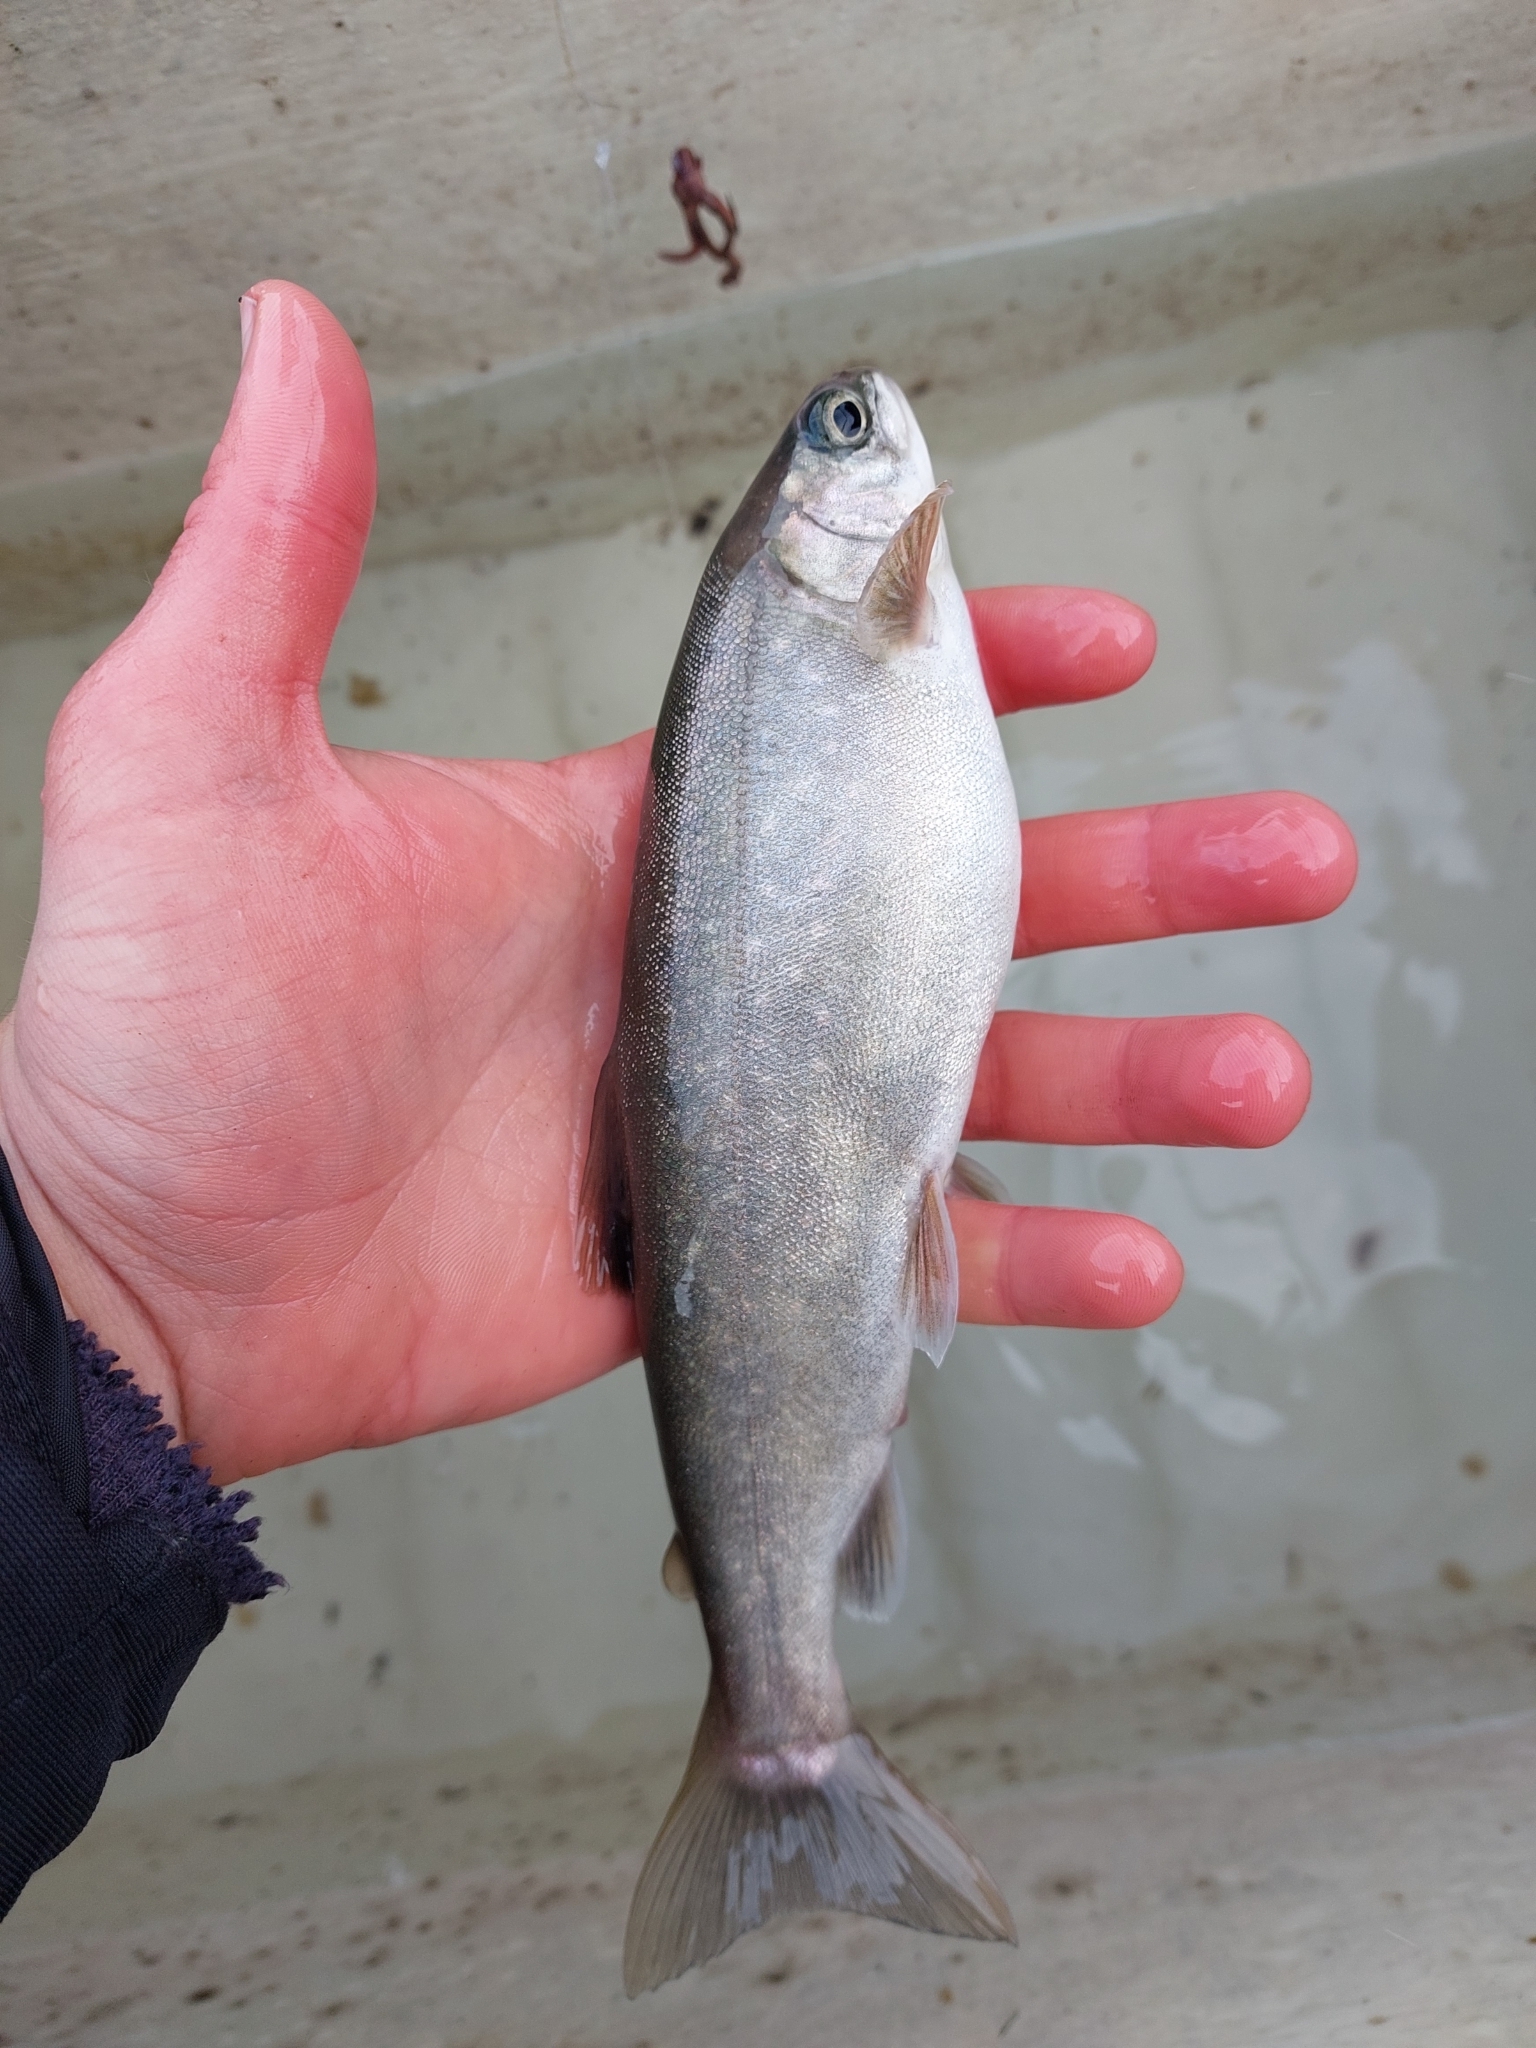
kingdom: Animalia
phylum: Chordata
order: Salmoniformes
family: Salmonidae
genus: Salvelinus
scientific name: Salvelinus alpinus
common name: Charr
